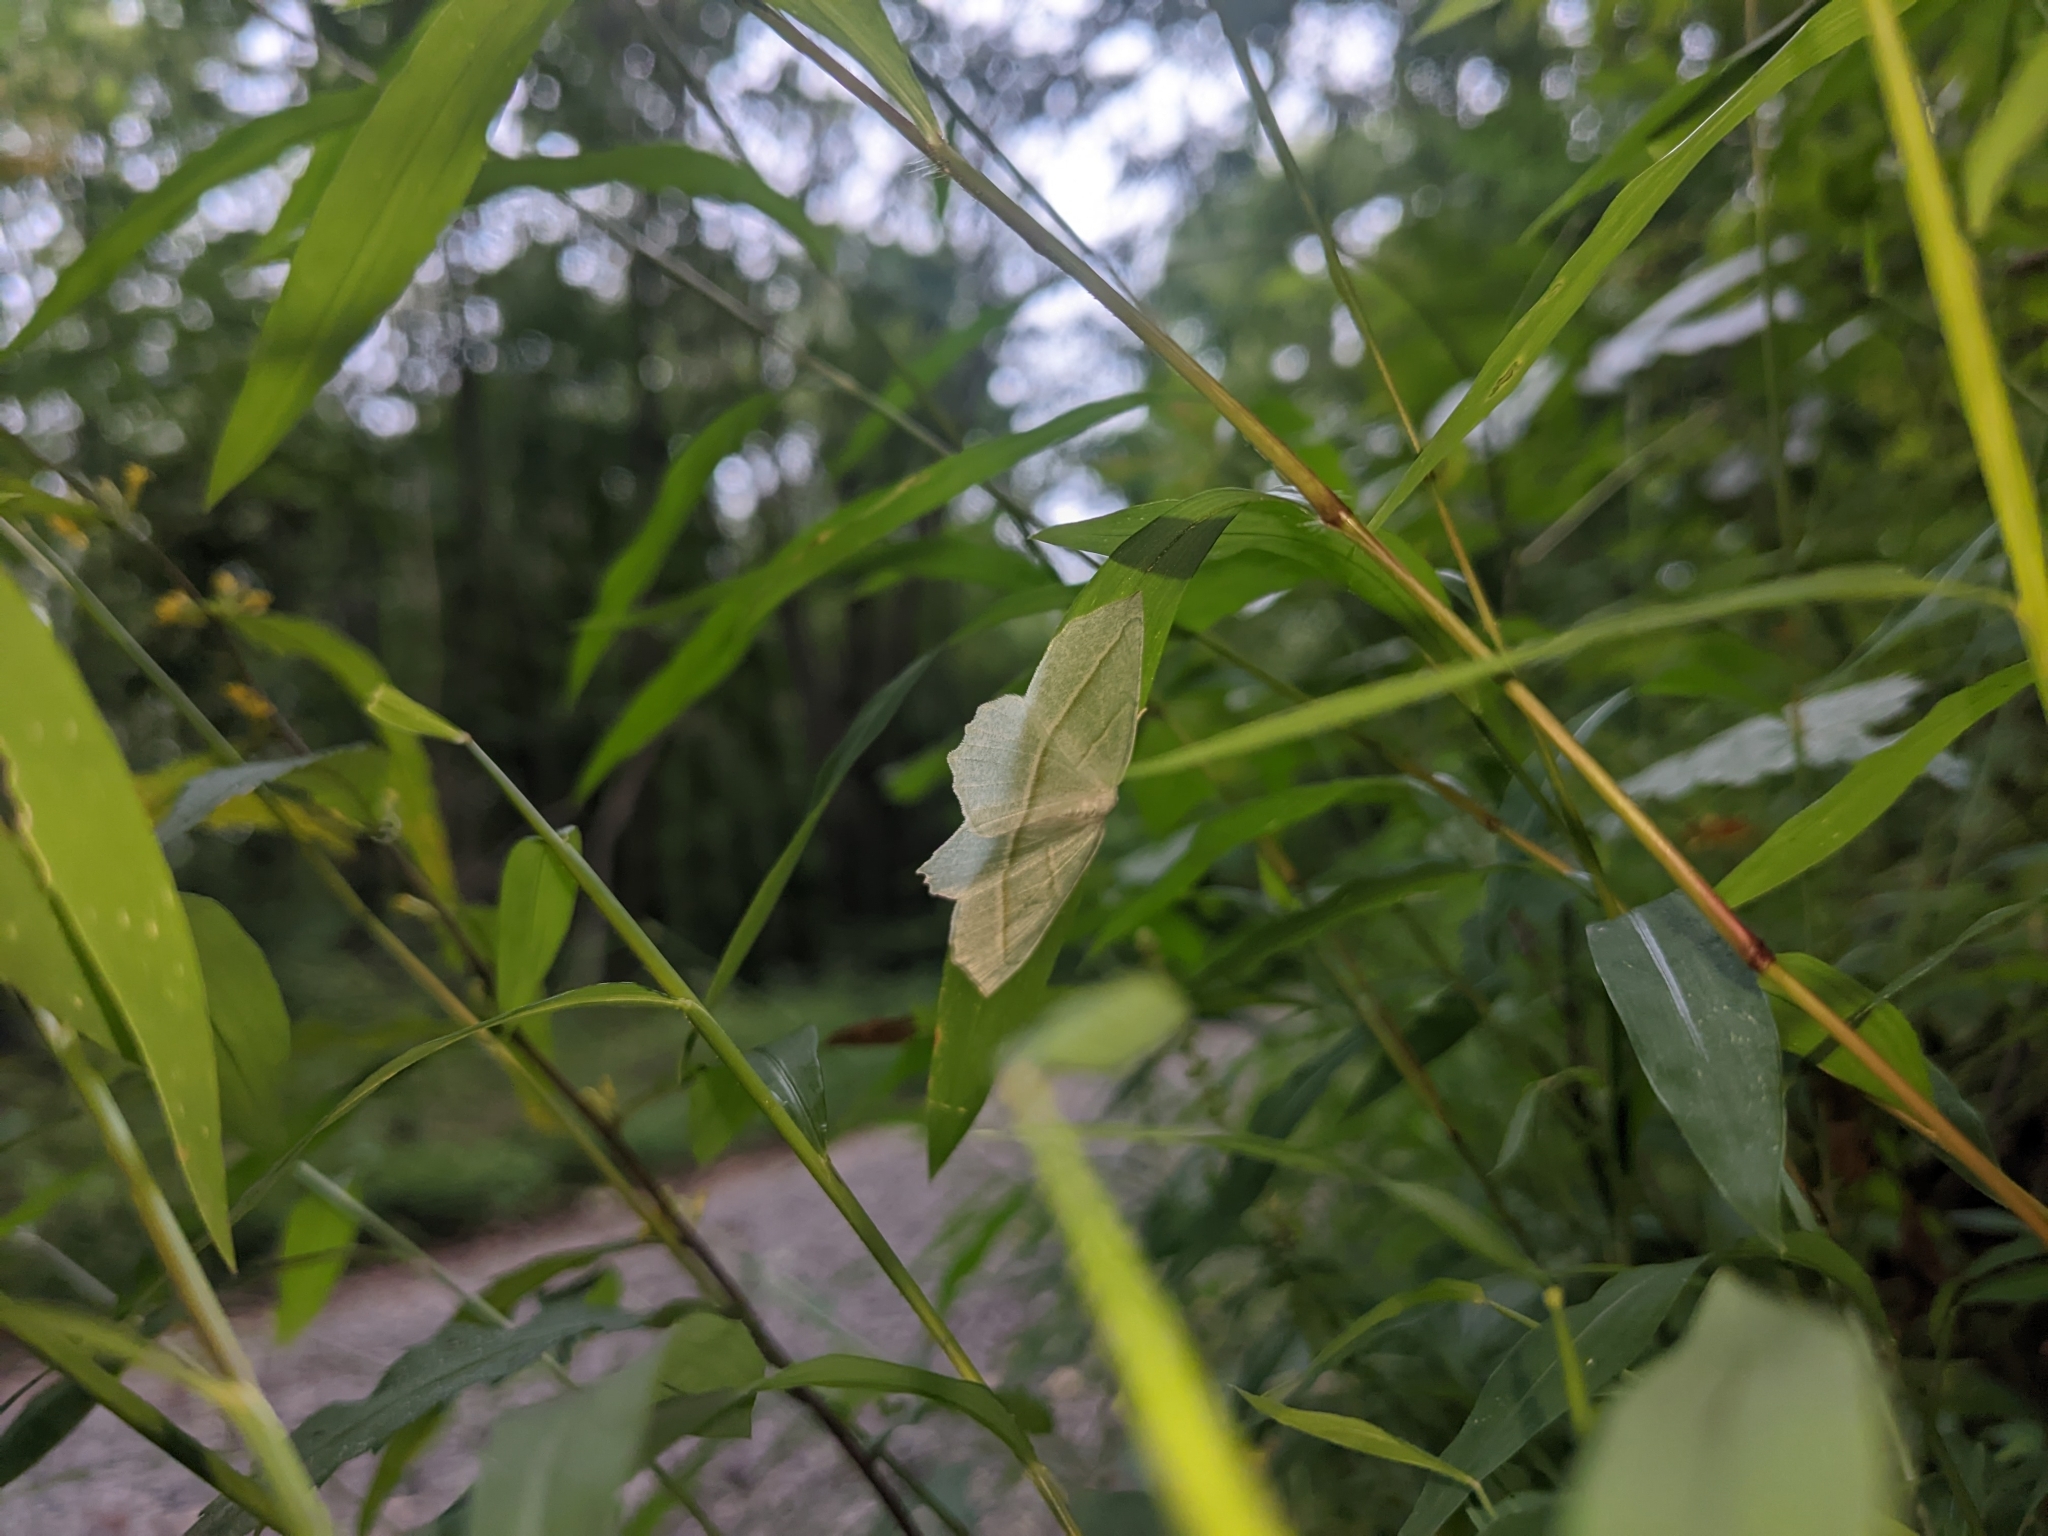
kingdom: Animalia
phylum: Arthropoda
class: Insecta
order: Lepidoptera
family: Geometridae
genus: Campaea
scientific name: Campaea perlata
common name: Fringed looper
